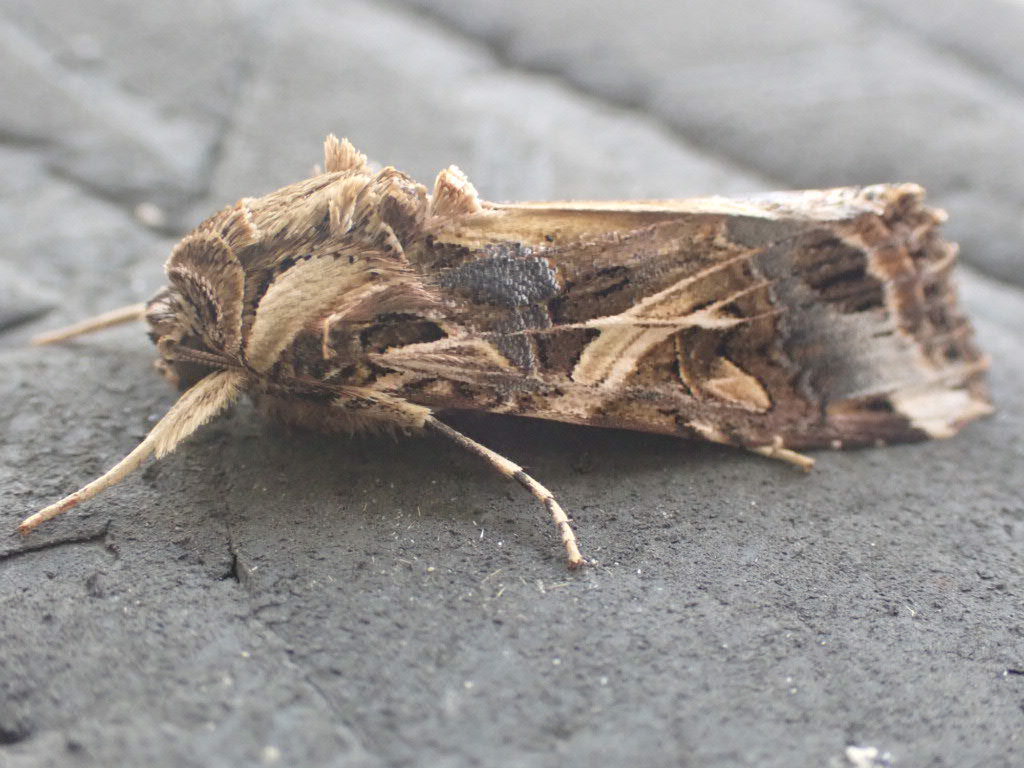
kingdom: Animalia
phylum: Arthropoda
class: Insecta
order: Lepidoptera
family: Noctuidae
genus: Spodoptera
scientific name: Spodoptera litura
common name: Asian cotton leafworm
